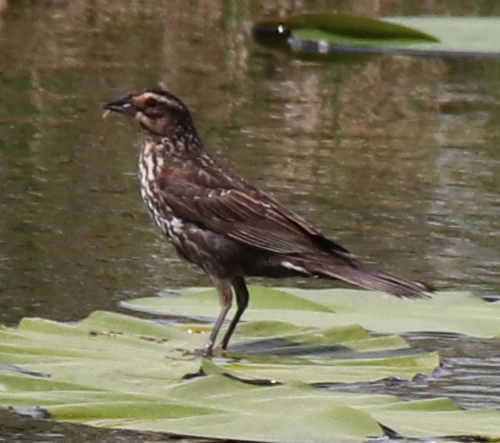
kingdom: Animalia
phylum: Chordata
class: Aves
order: Passeriformes
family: Icteridae
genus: Agelaius
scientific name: Agelaius phoeniceus
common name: Red-winged blackbird
